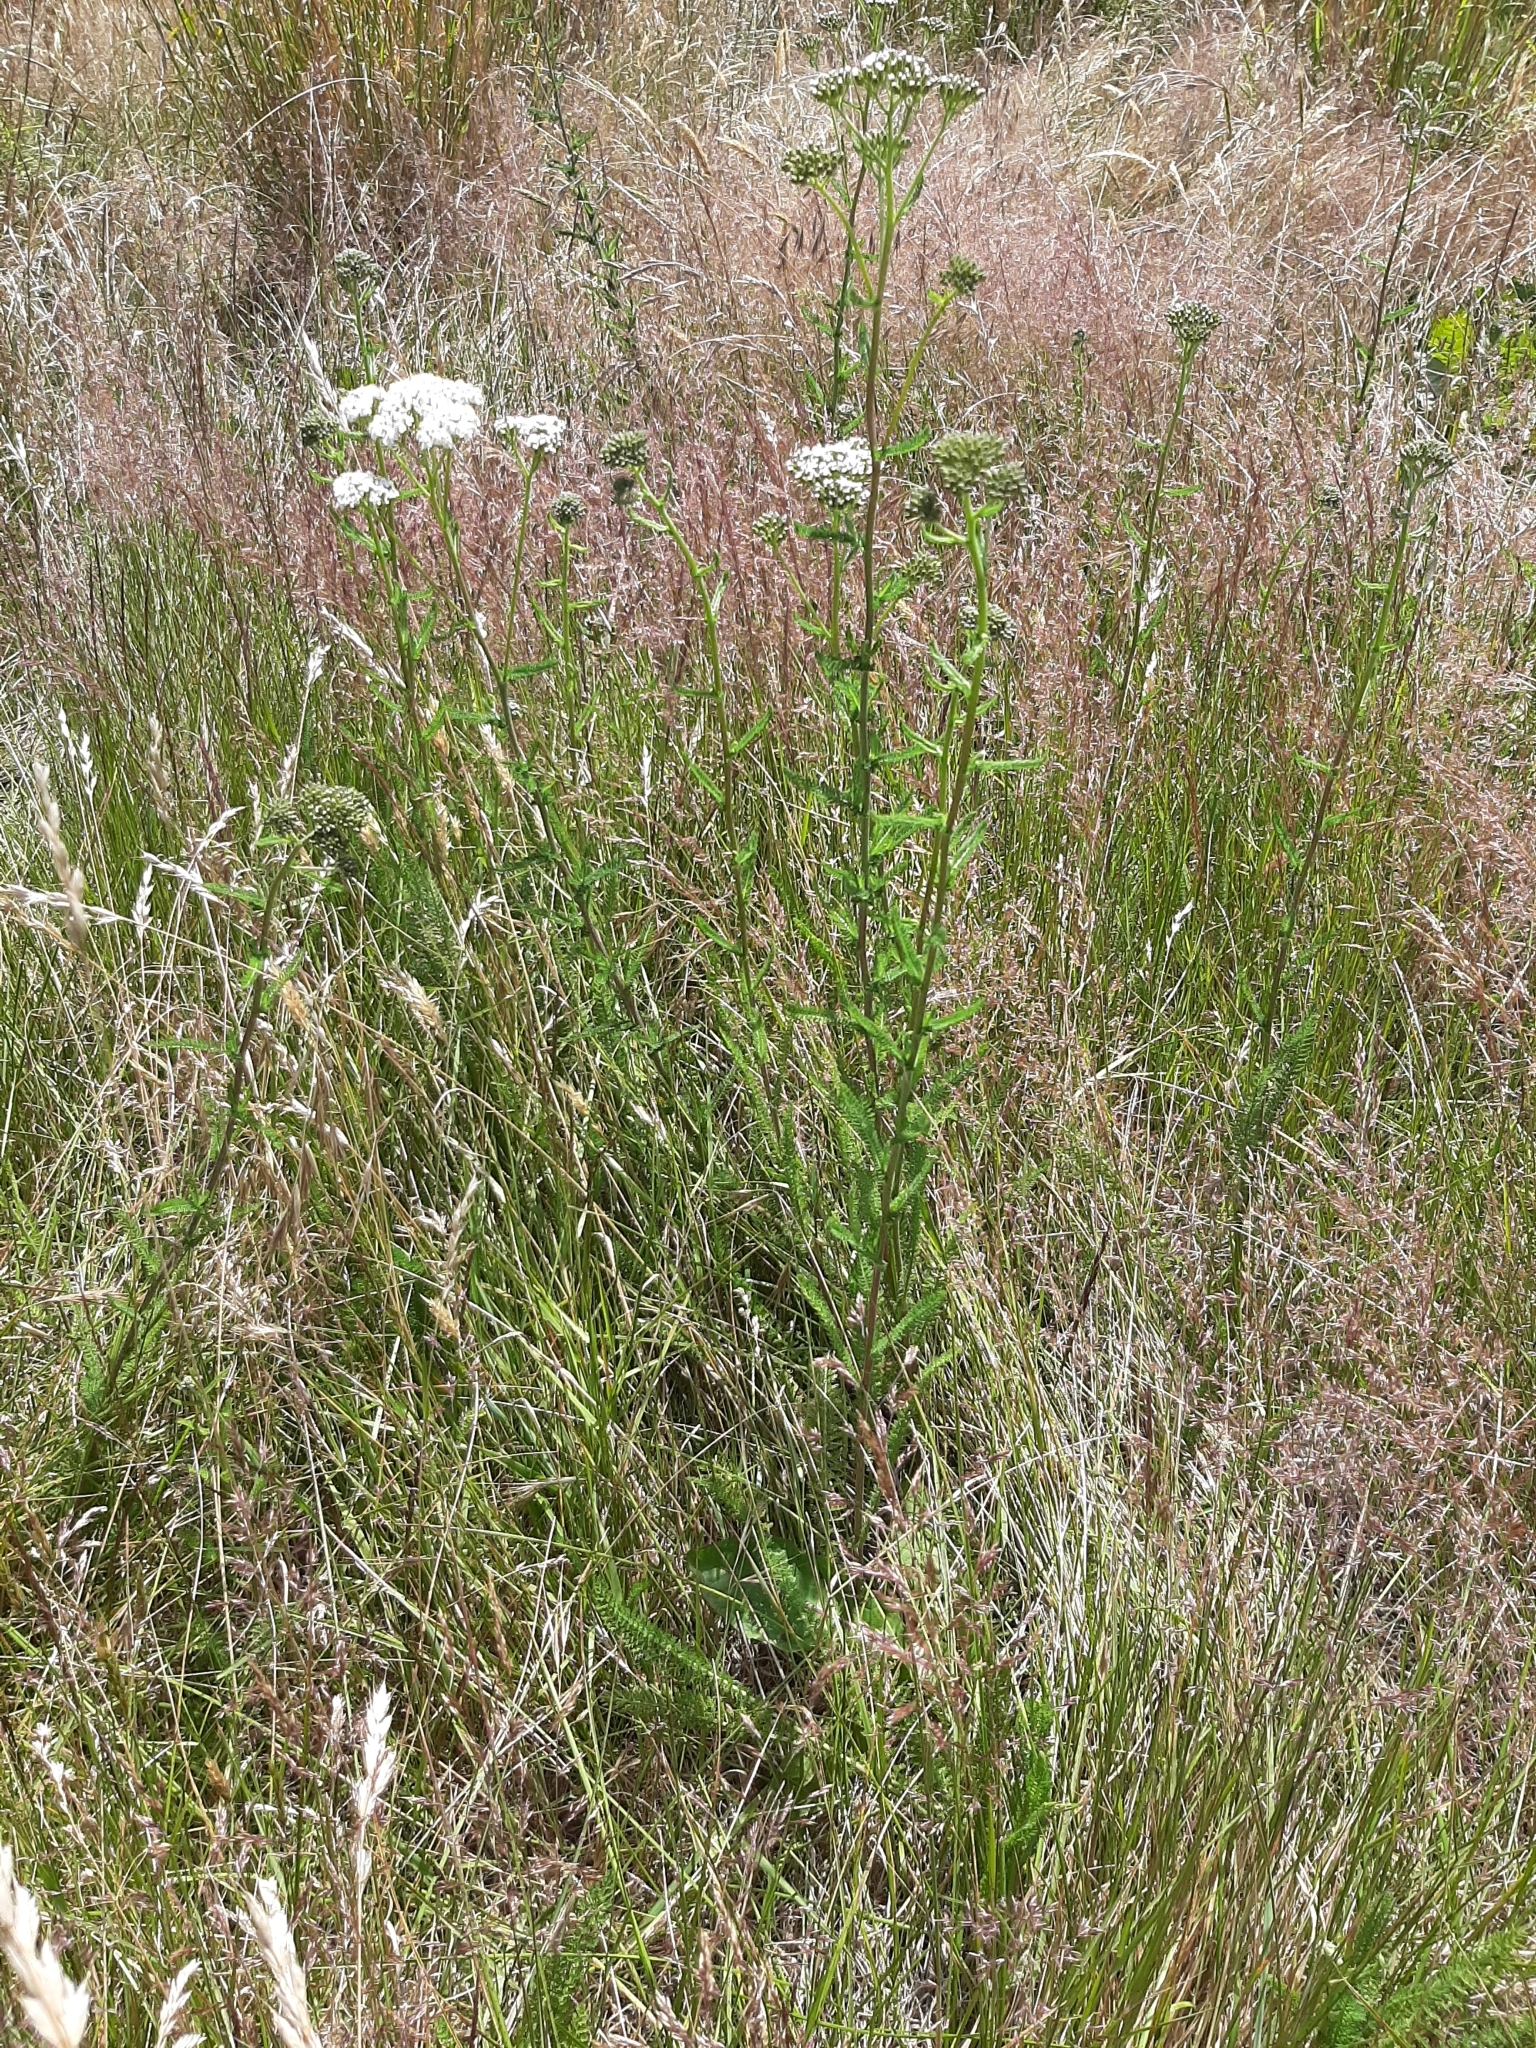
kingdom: Plantae
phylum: Tracheophyta
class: Magnoliopsida
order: Asterales
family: Asteraceae
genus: Achillea
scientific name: Achillea millefolium
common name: Yarrow
